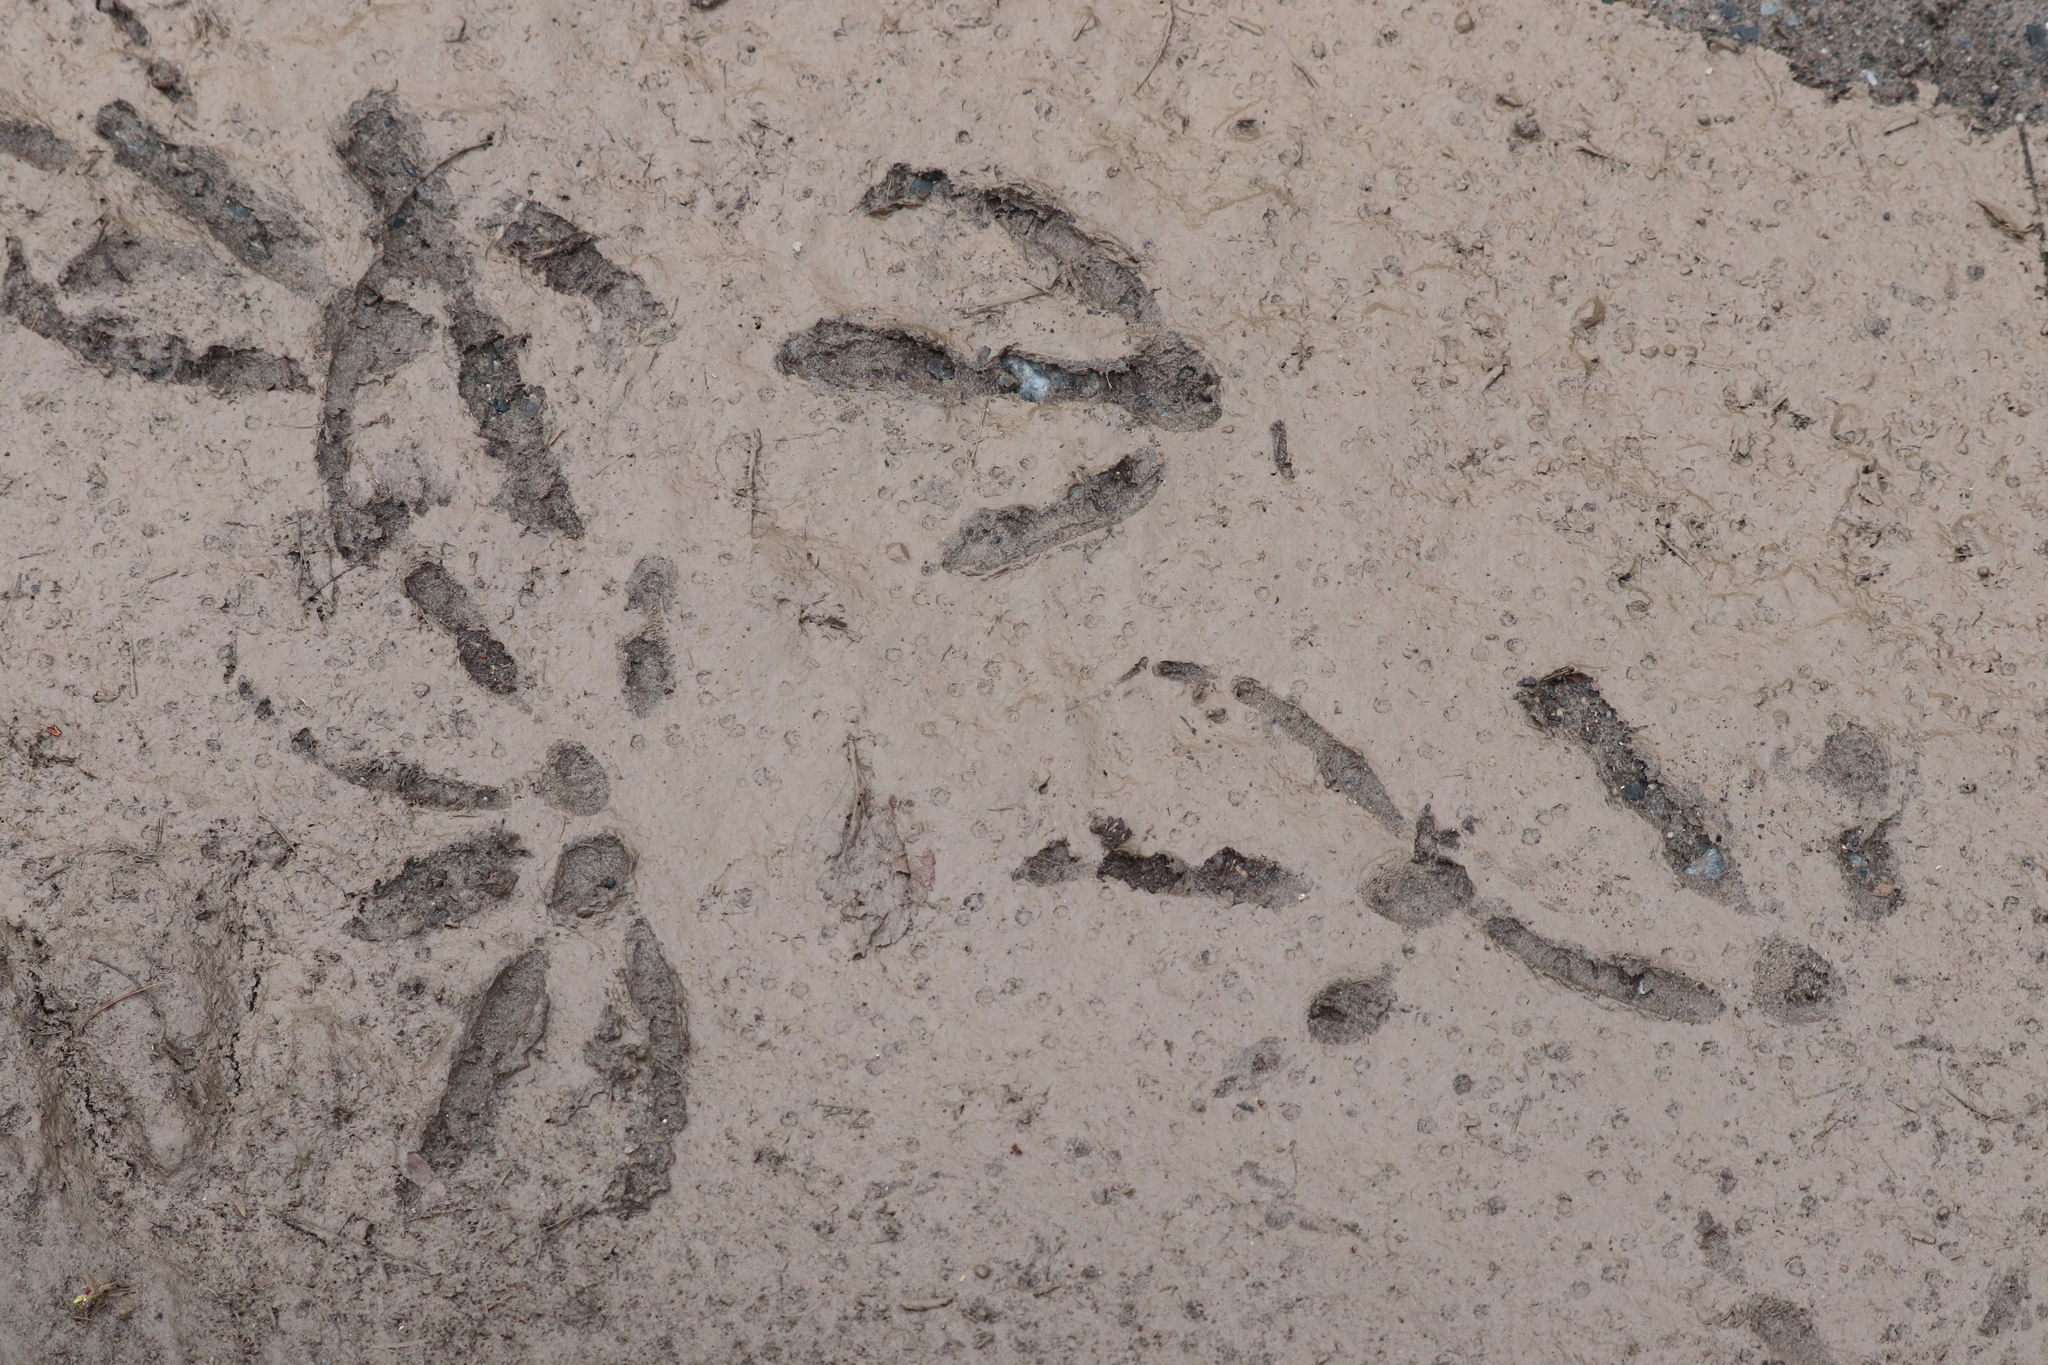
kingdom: Animalia
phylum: Chordata
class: Aves
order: Anseriformes
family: Anatidae
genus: Branta
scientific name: Branta canadensis
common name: Canada goose
